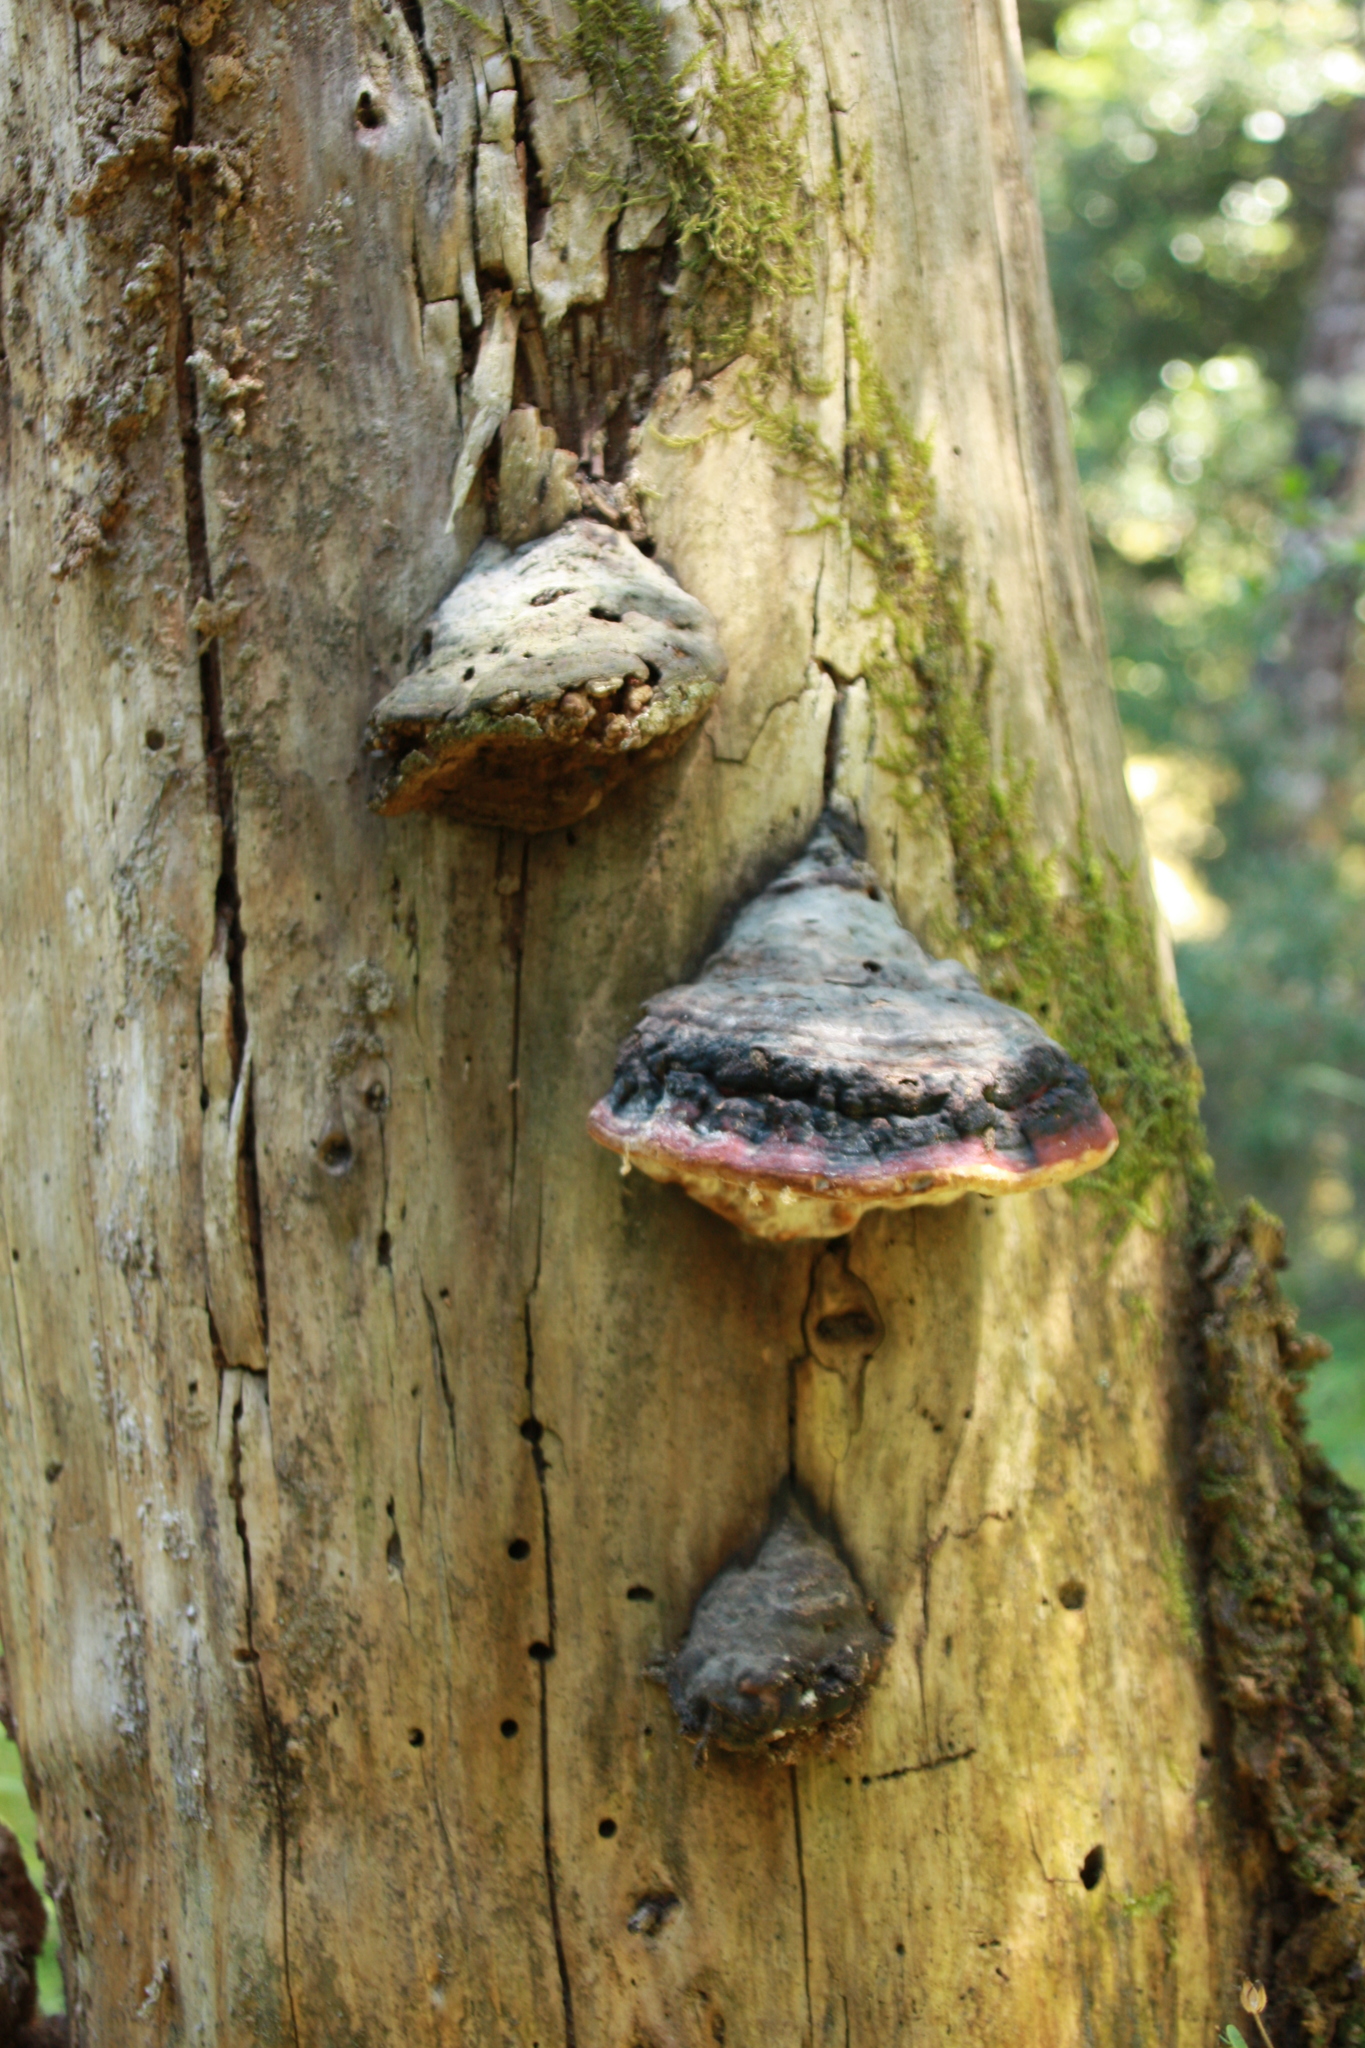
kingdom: Fungi
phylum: Basidiomycota
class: Agaricomycetes
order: Polyporales
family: Fomitopsidaceae
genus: Fomitopsis
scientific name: Fomitopsis pinicola
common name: Red-belted bracket
